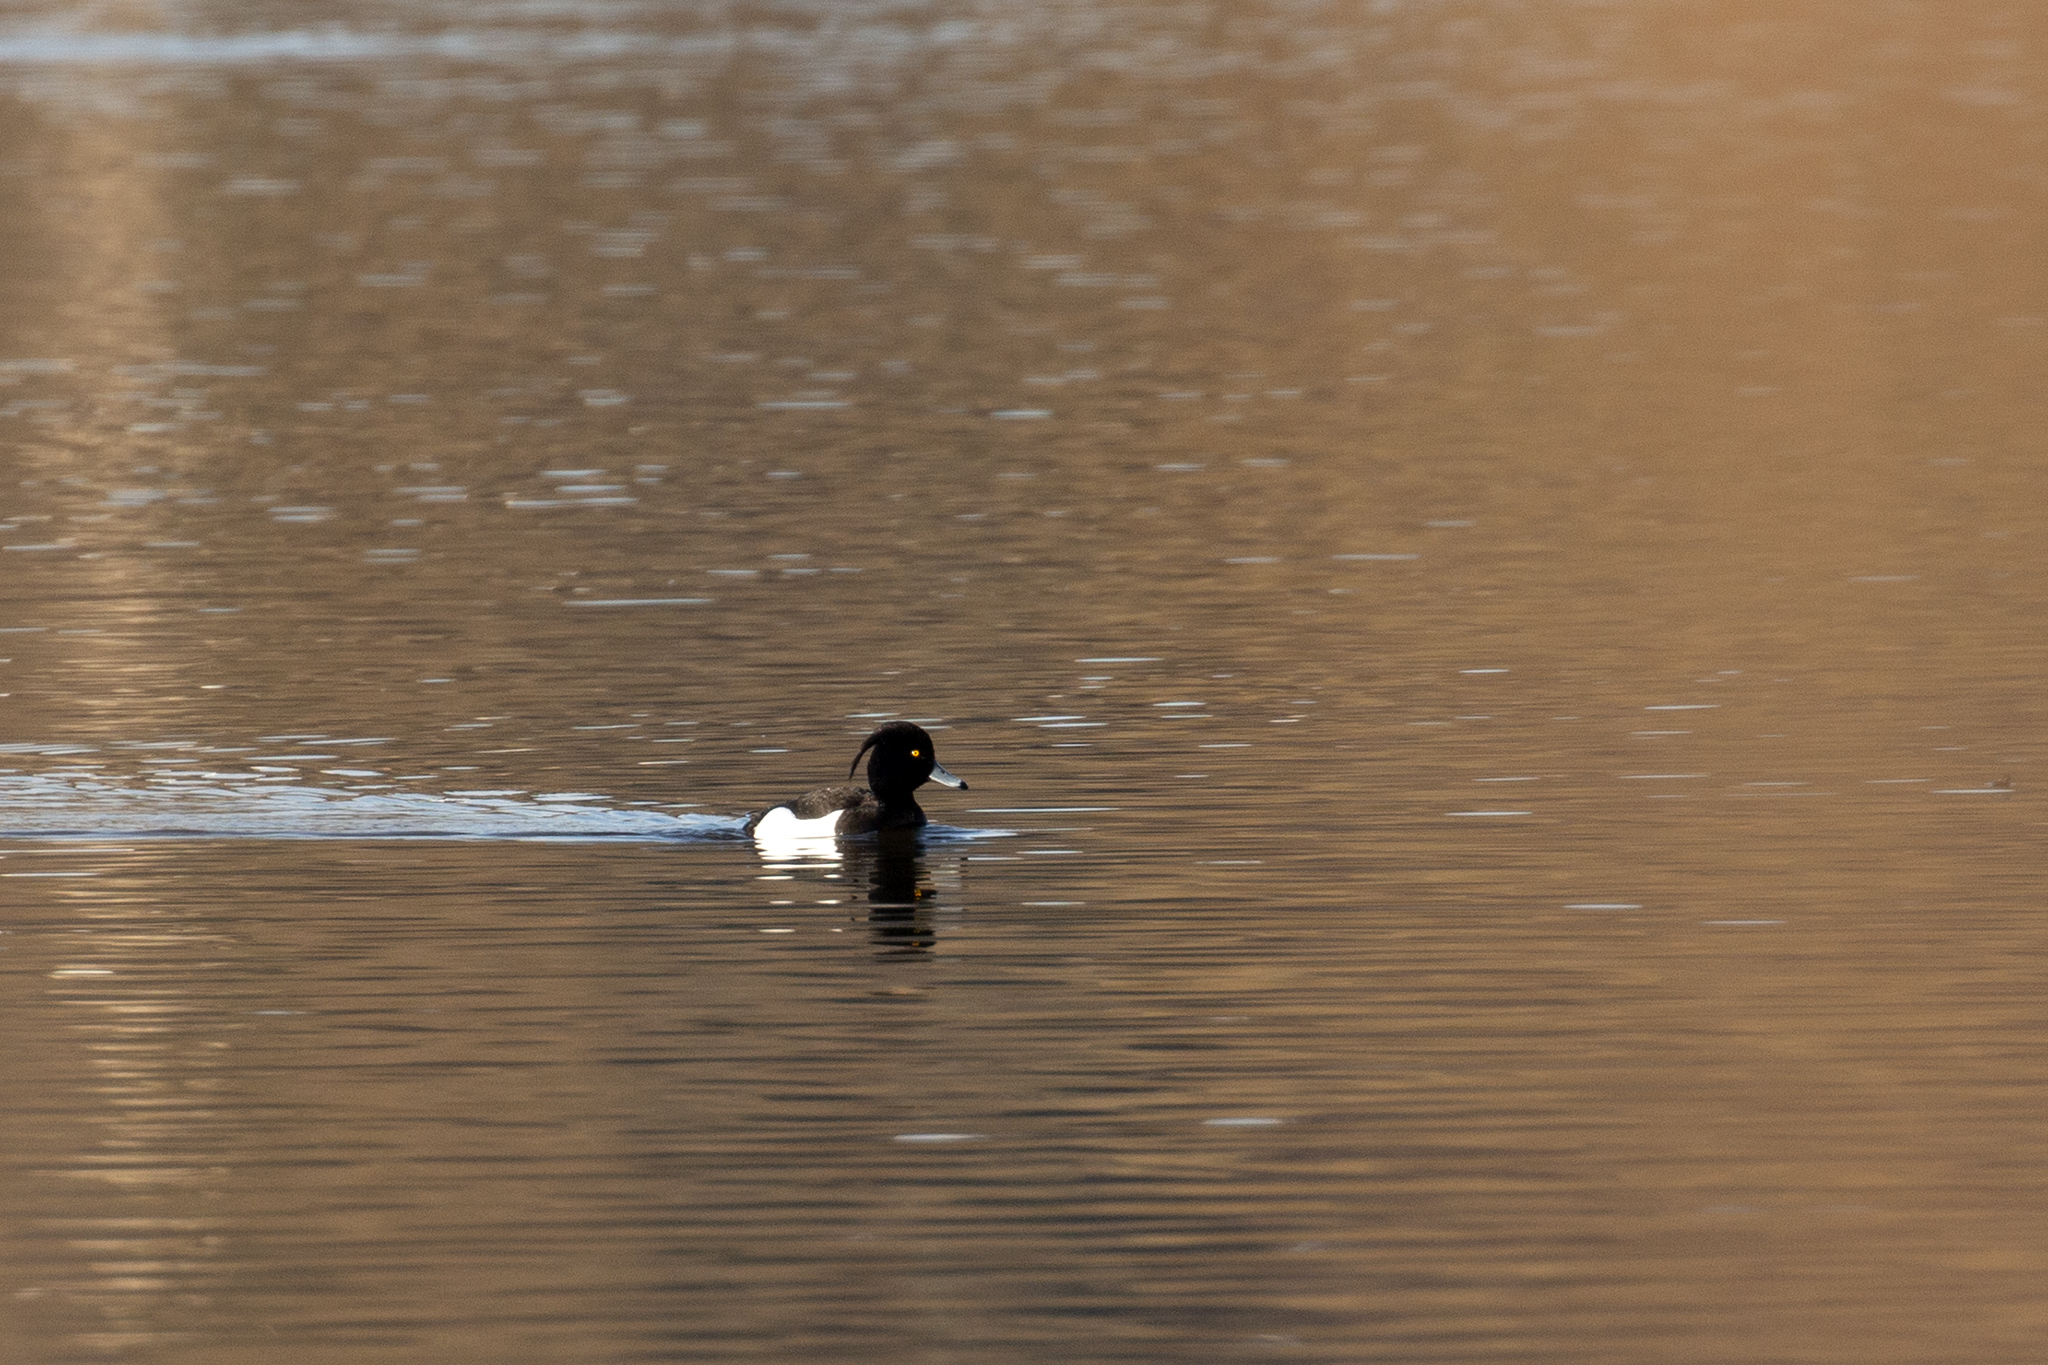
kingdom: Animalia
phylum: Chordata
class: Aves
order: Anseriformes
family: Anatidae
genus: Aythya
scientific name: Aythya fuligula
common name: Tufted duck
